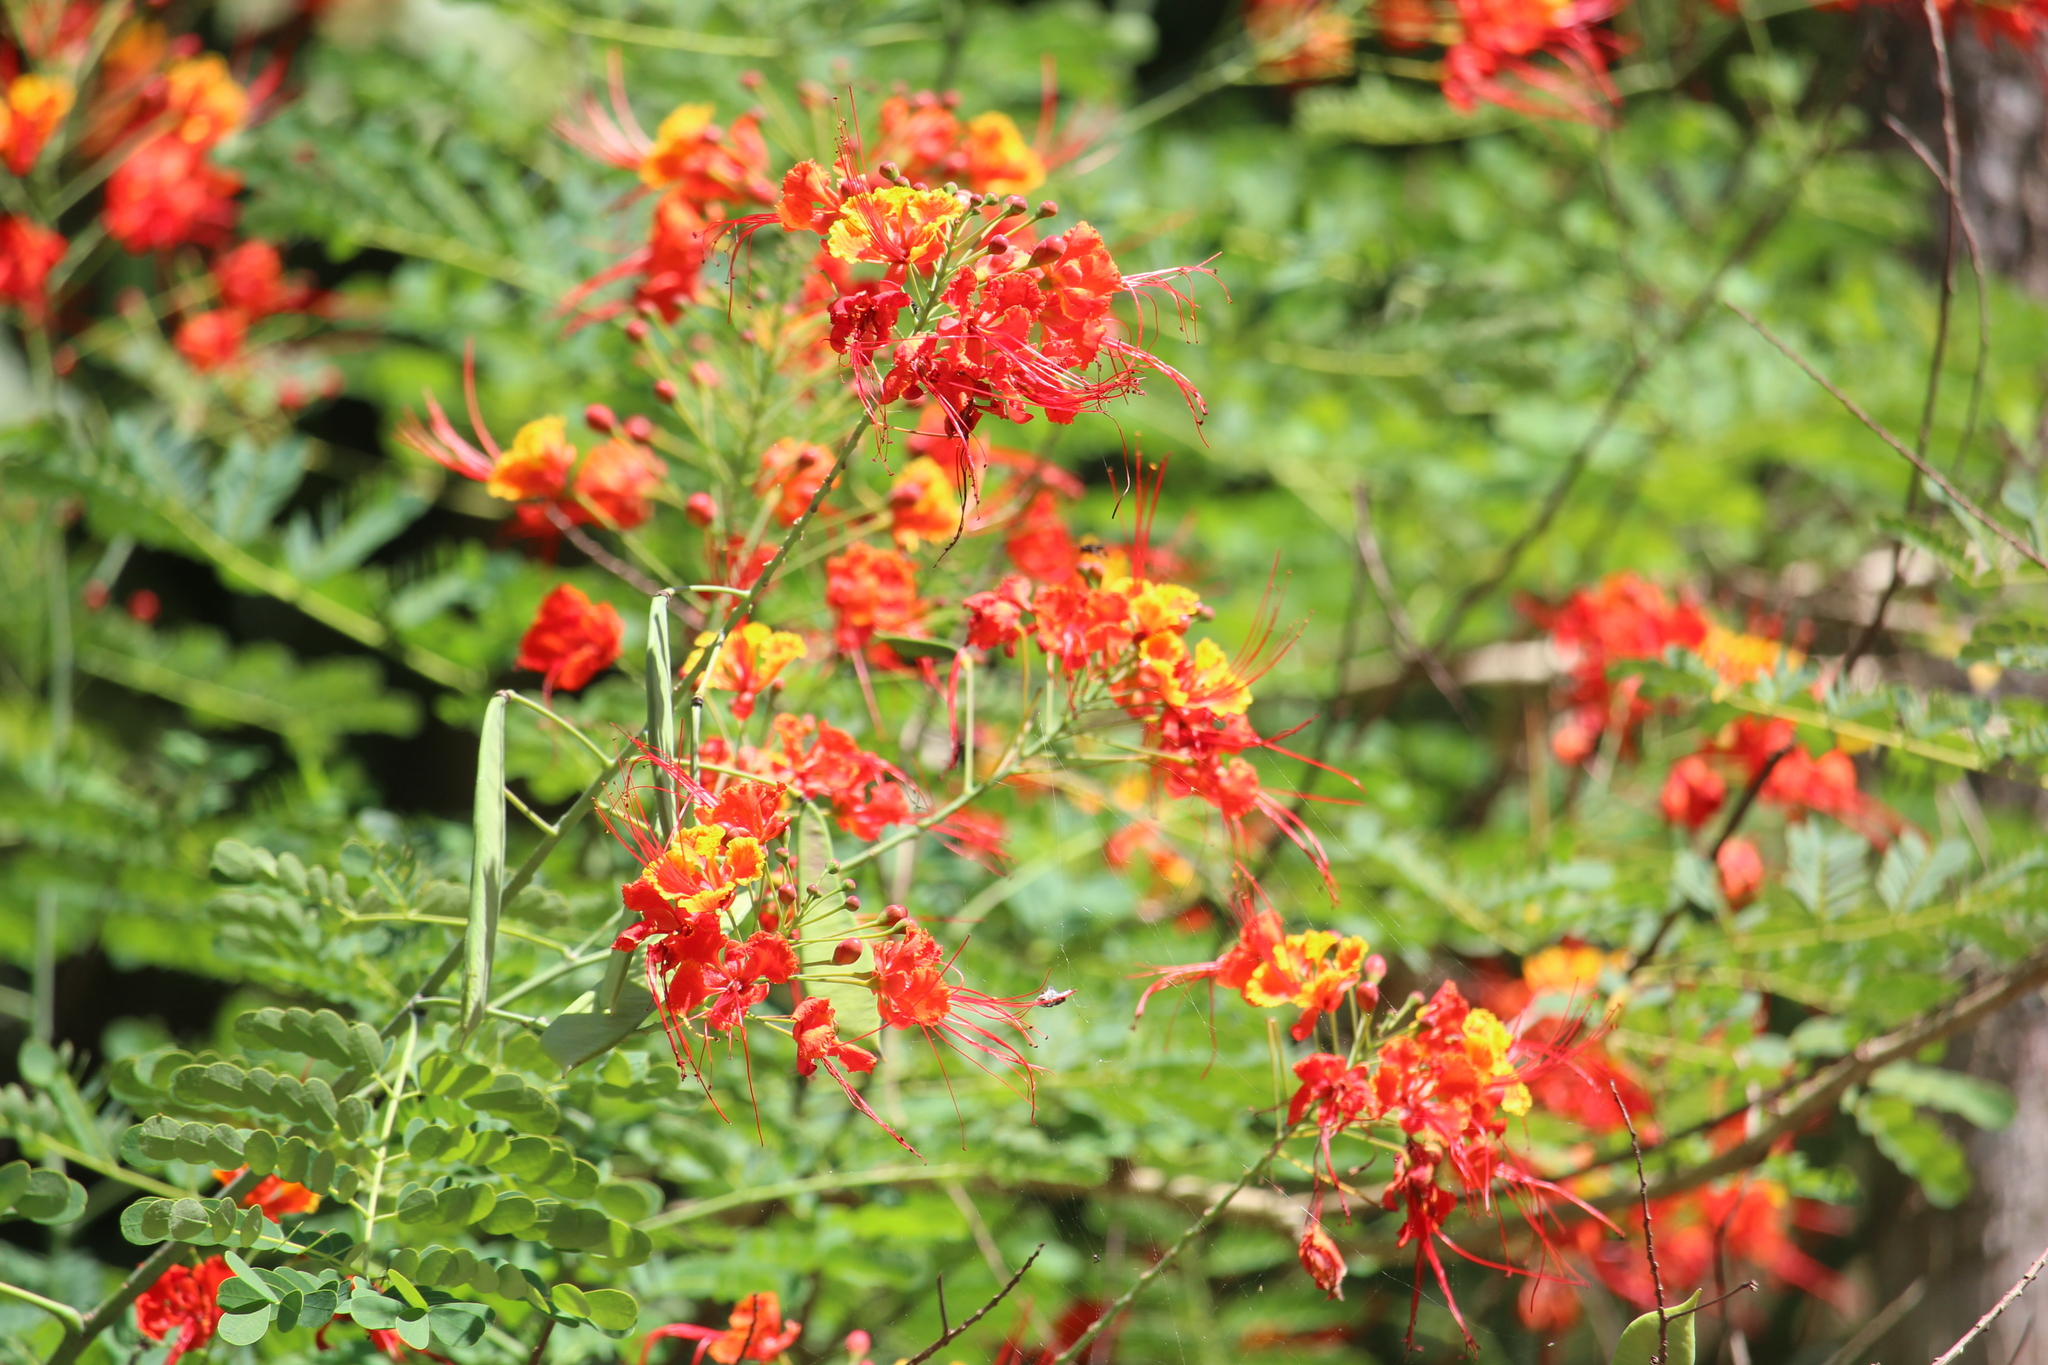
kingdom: Plantae
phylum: Tracheophyta
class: Magnoliopsida
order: Fabales
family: Fabaceae
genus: Caesalpinia
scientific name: Caesalpinia pulcherrima
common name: Pride-of-barbados
